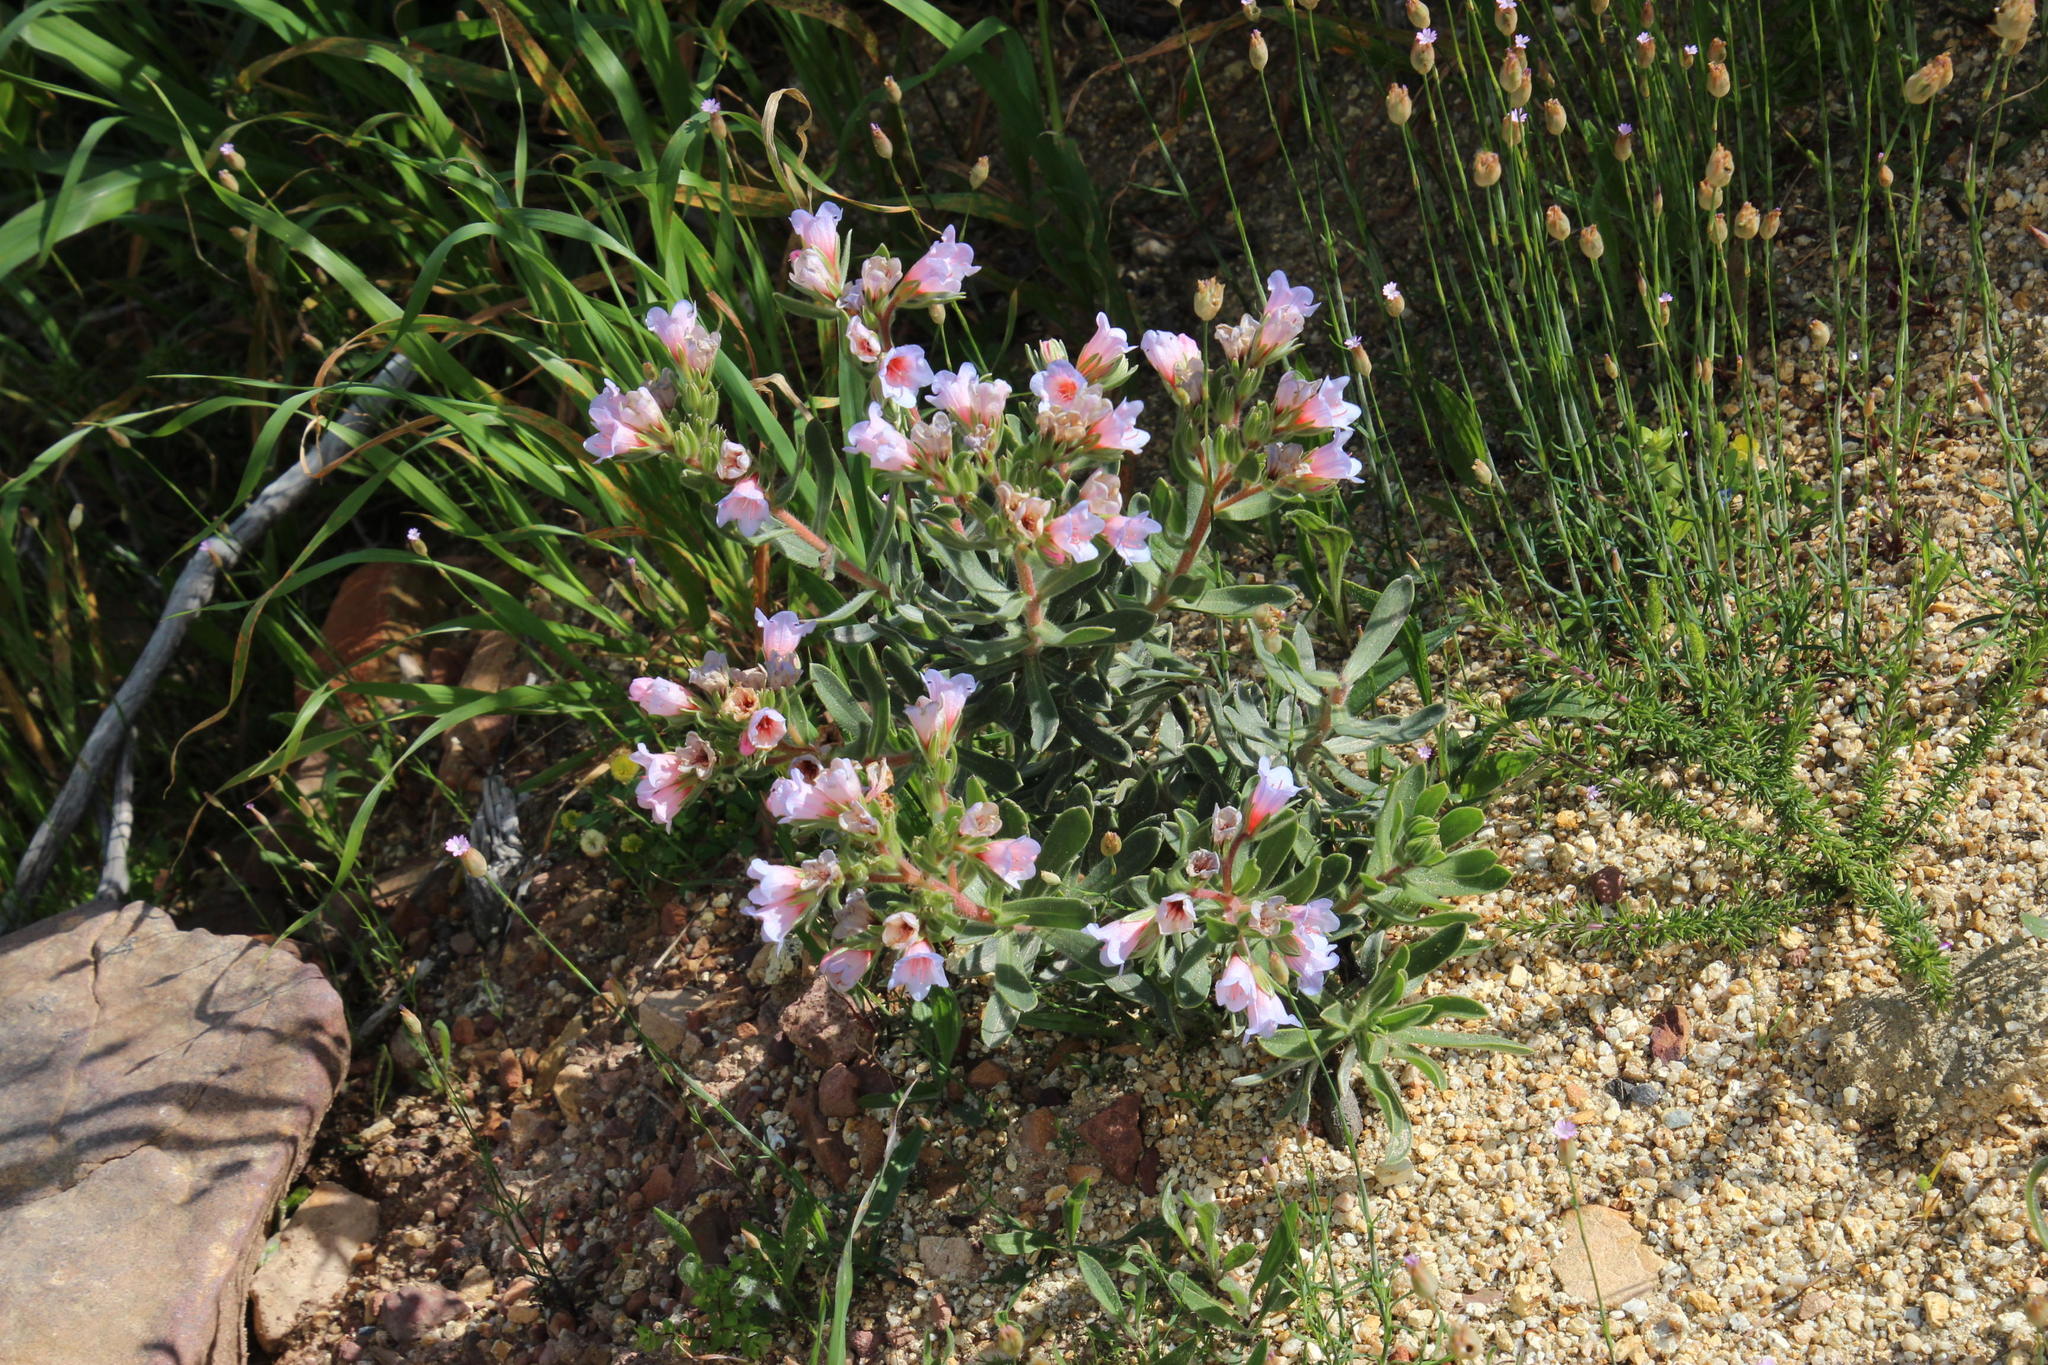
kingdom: Plantae
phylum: Tracheophyta
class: Magnoliopsida
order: Boraginales
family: Boraginaceae
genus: Lobostemon
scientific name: Lobostemon fruticosus
